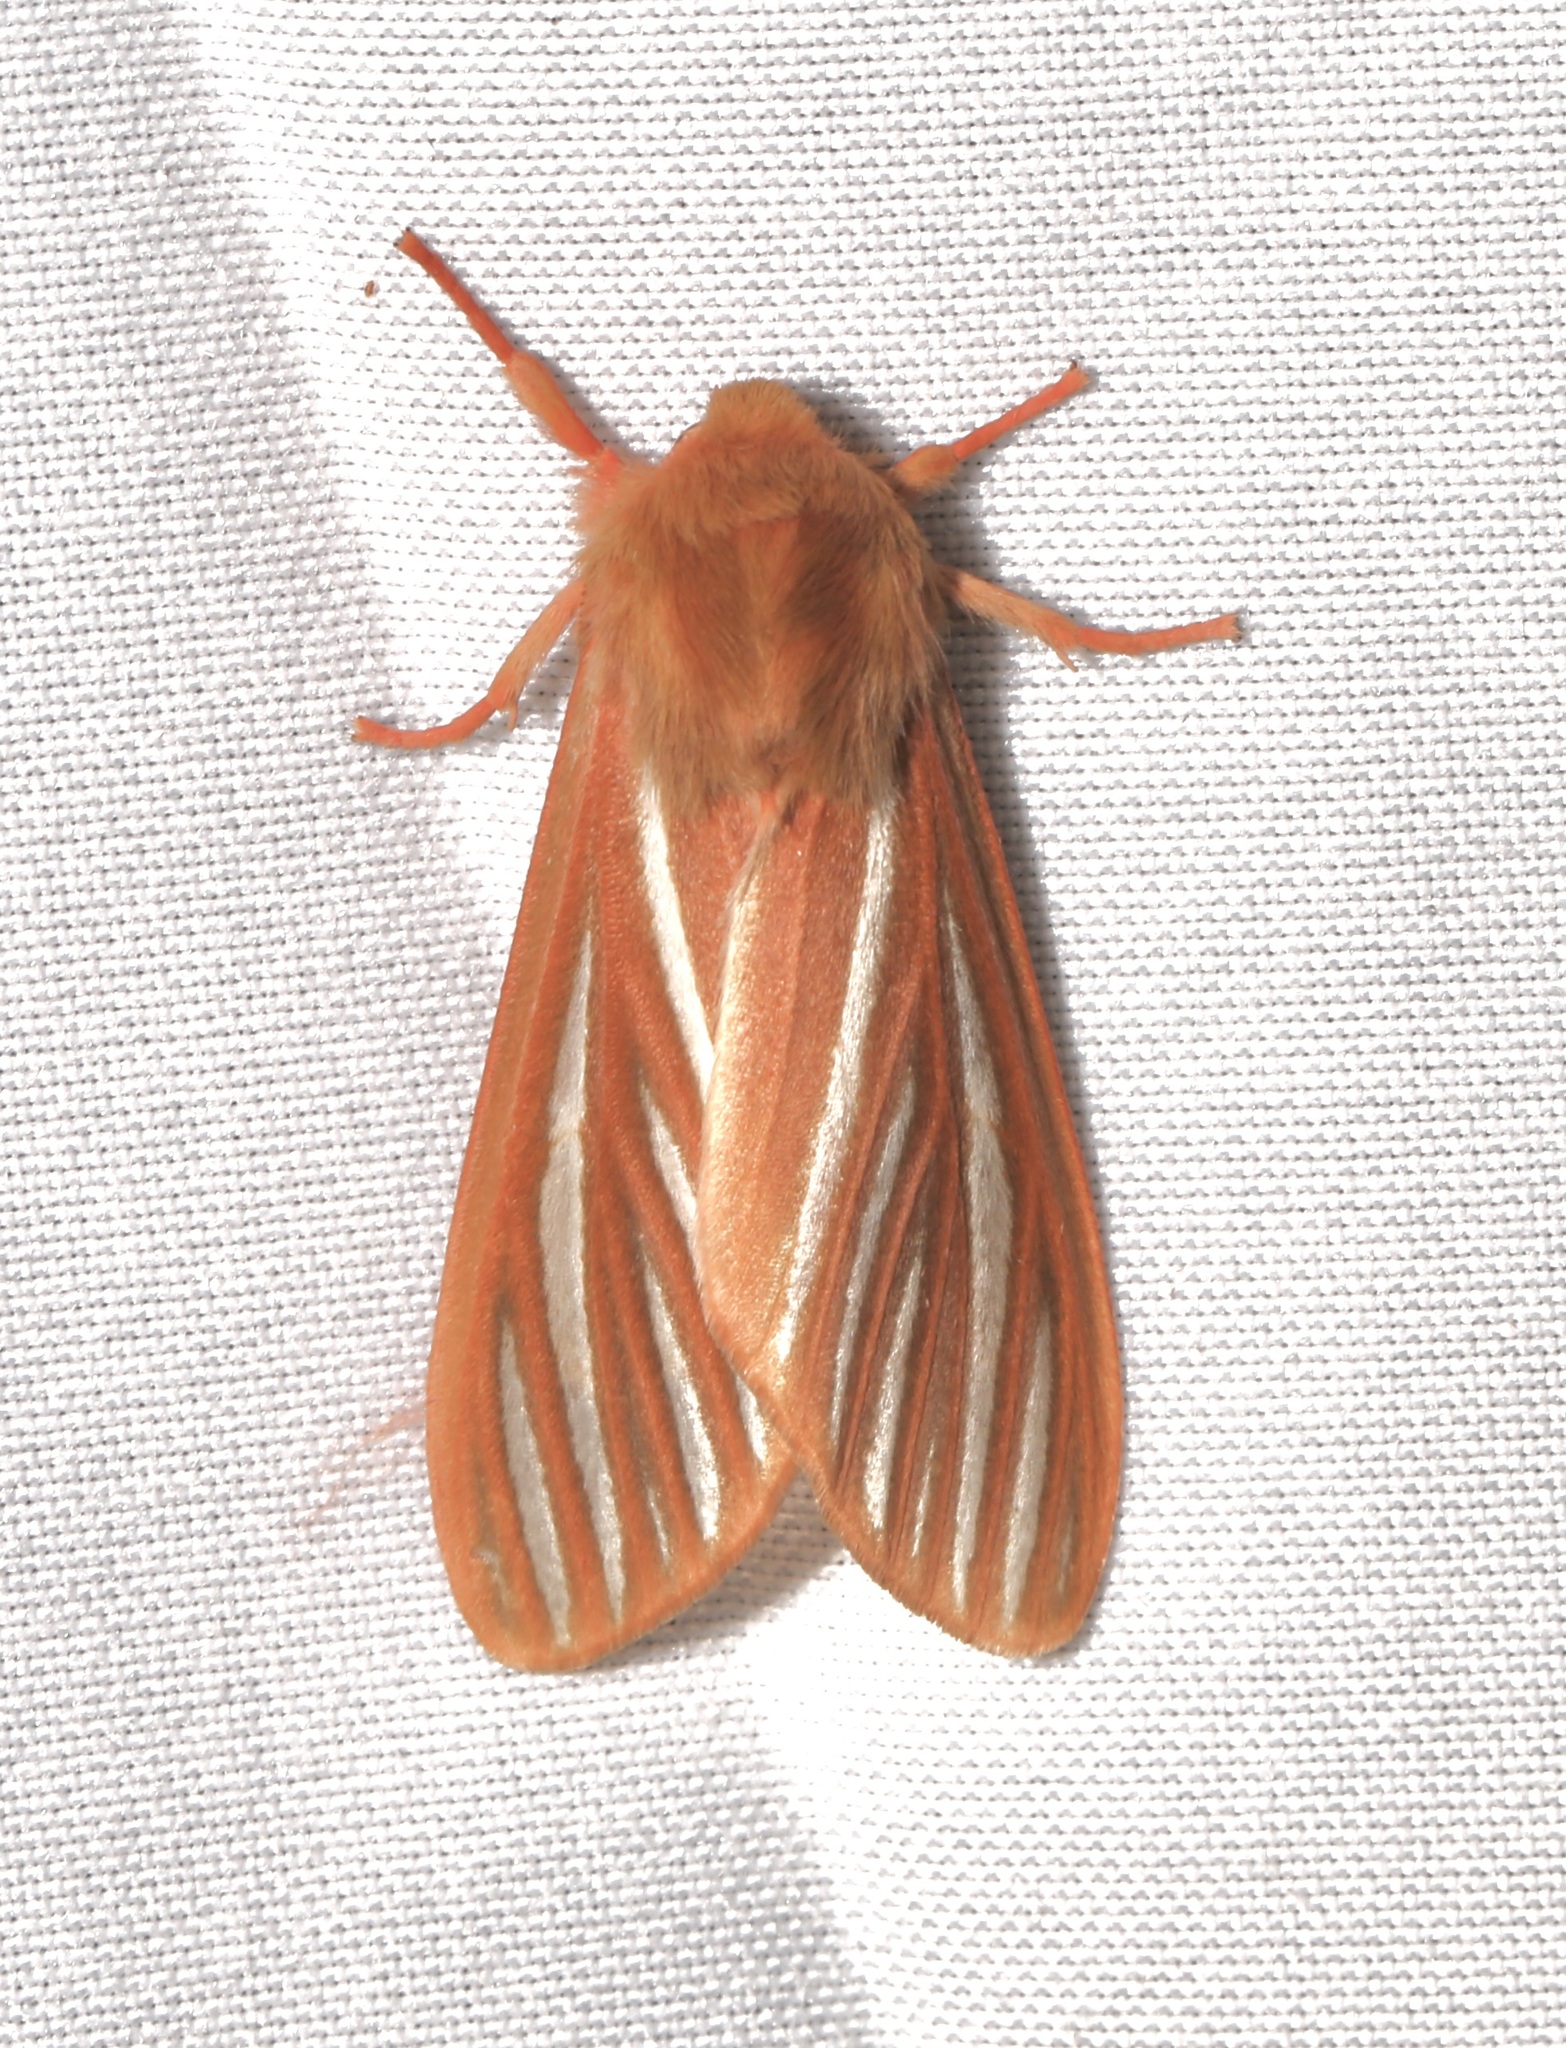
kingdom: Animalia
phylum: Arthropoda
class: Insecta
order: Lepidoptera
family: Erebidae
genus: Hemihyalea
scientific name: Hemihyalea ambigua
